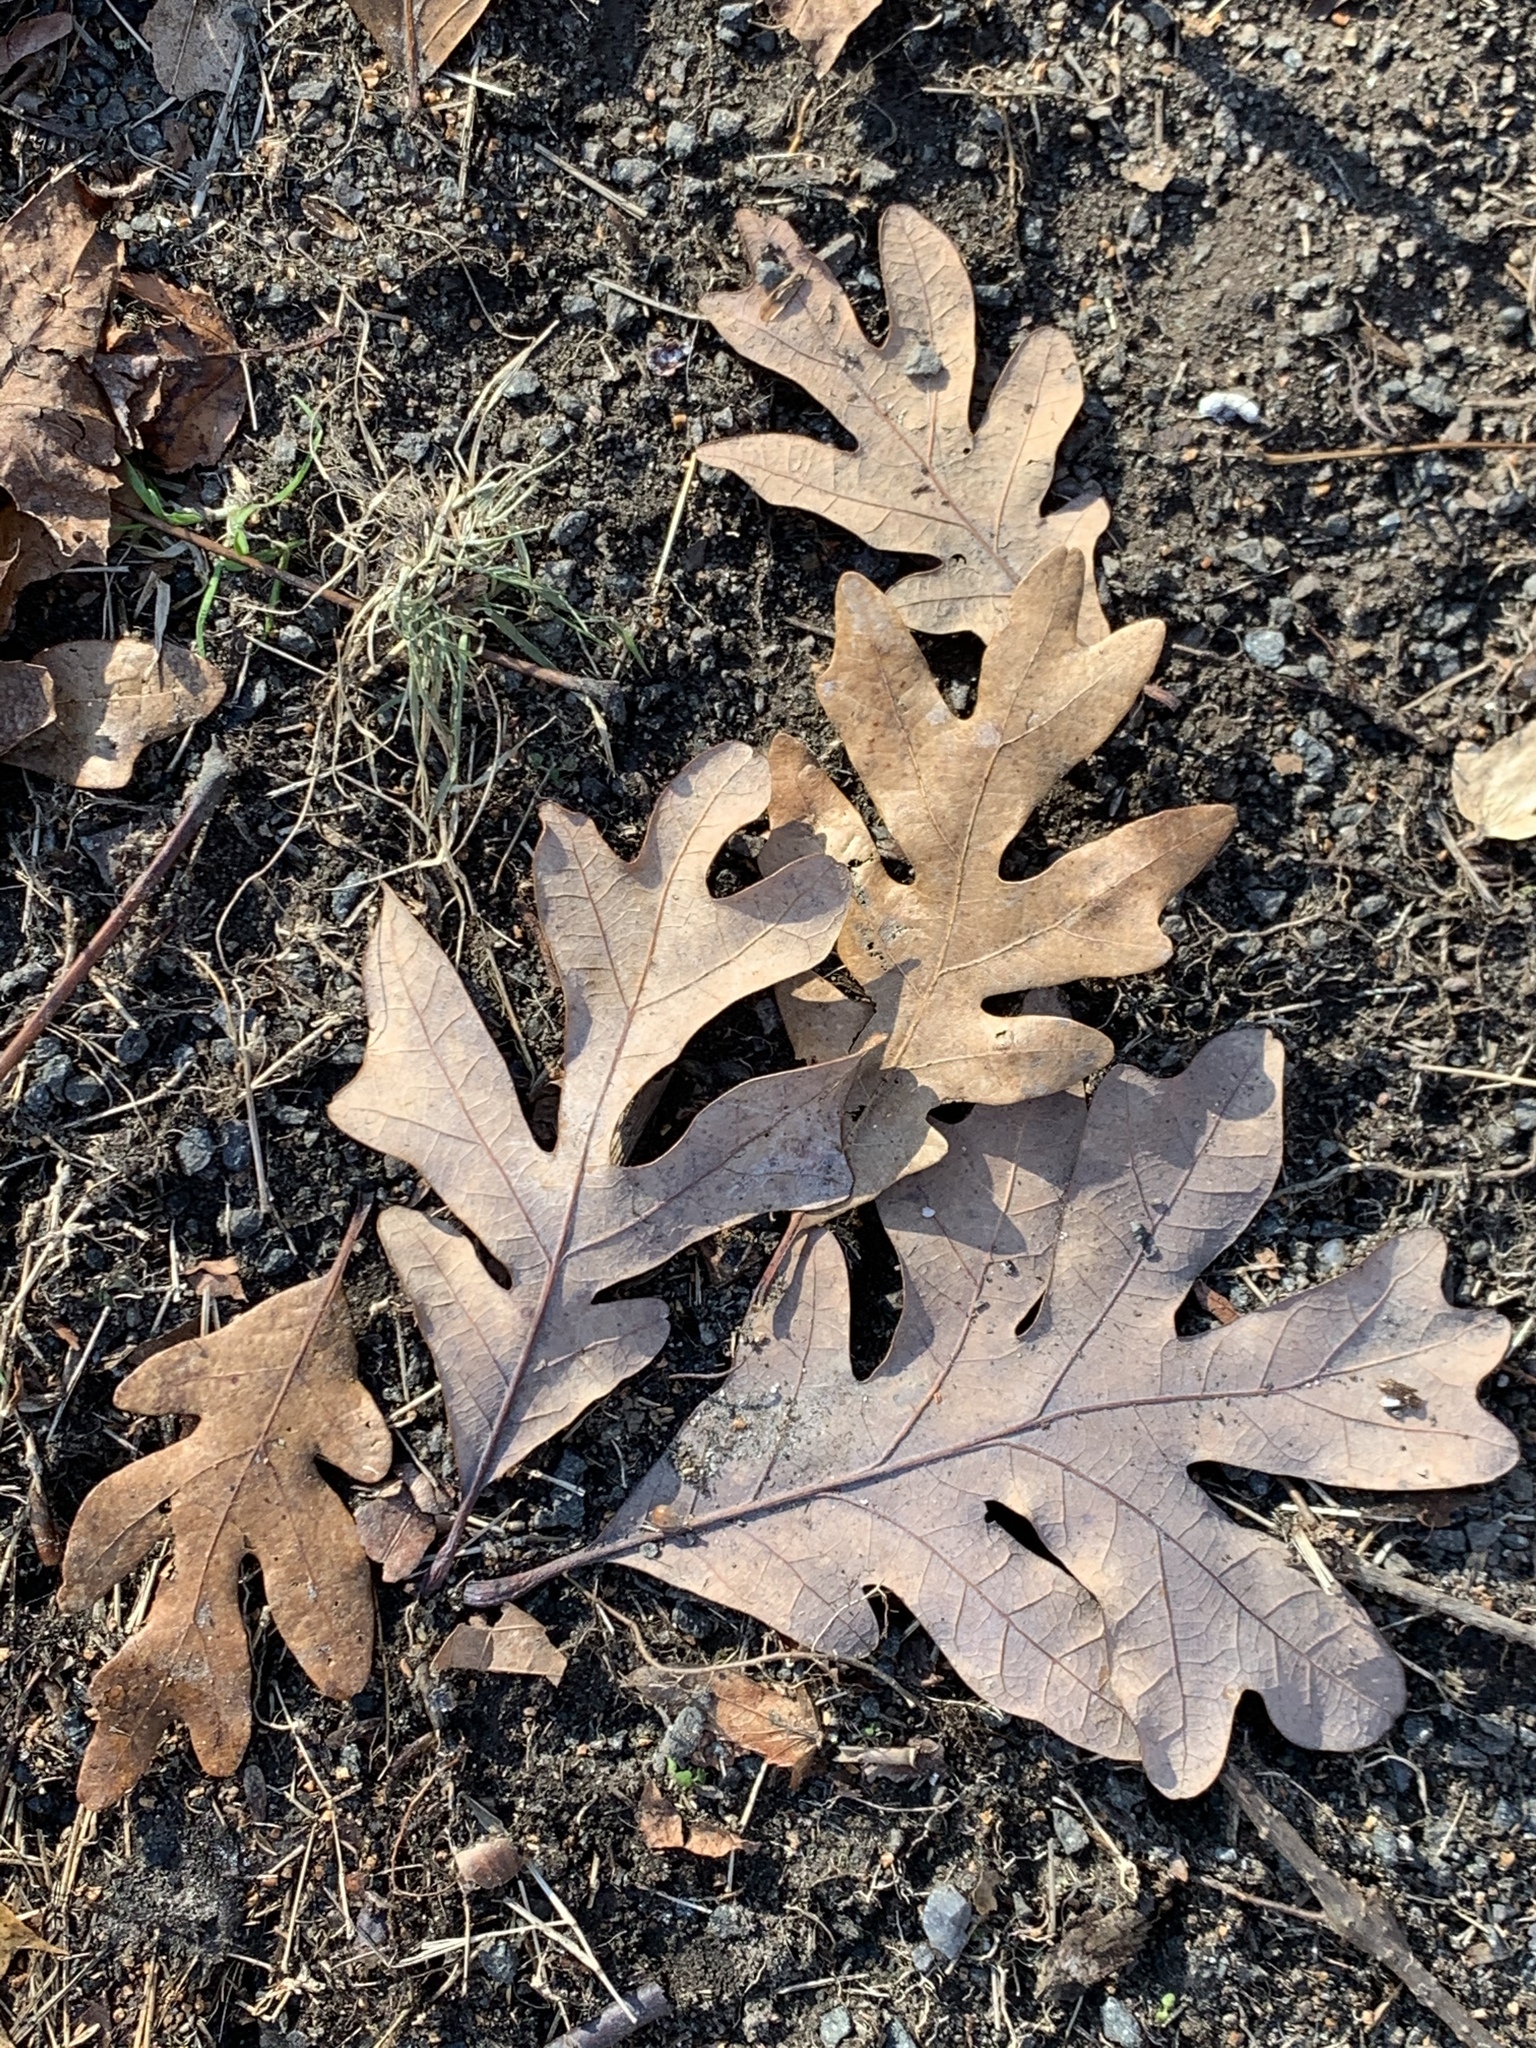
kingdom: Plantae
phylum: Tracheophyta
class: Magnoliopsida
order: Fagales
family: Fagaceae
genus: Quercus
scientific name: Quercus alba
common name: White oak
